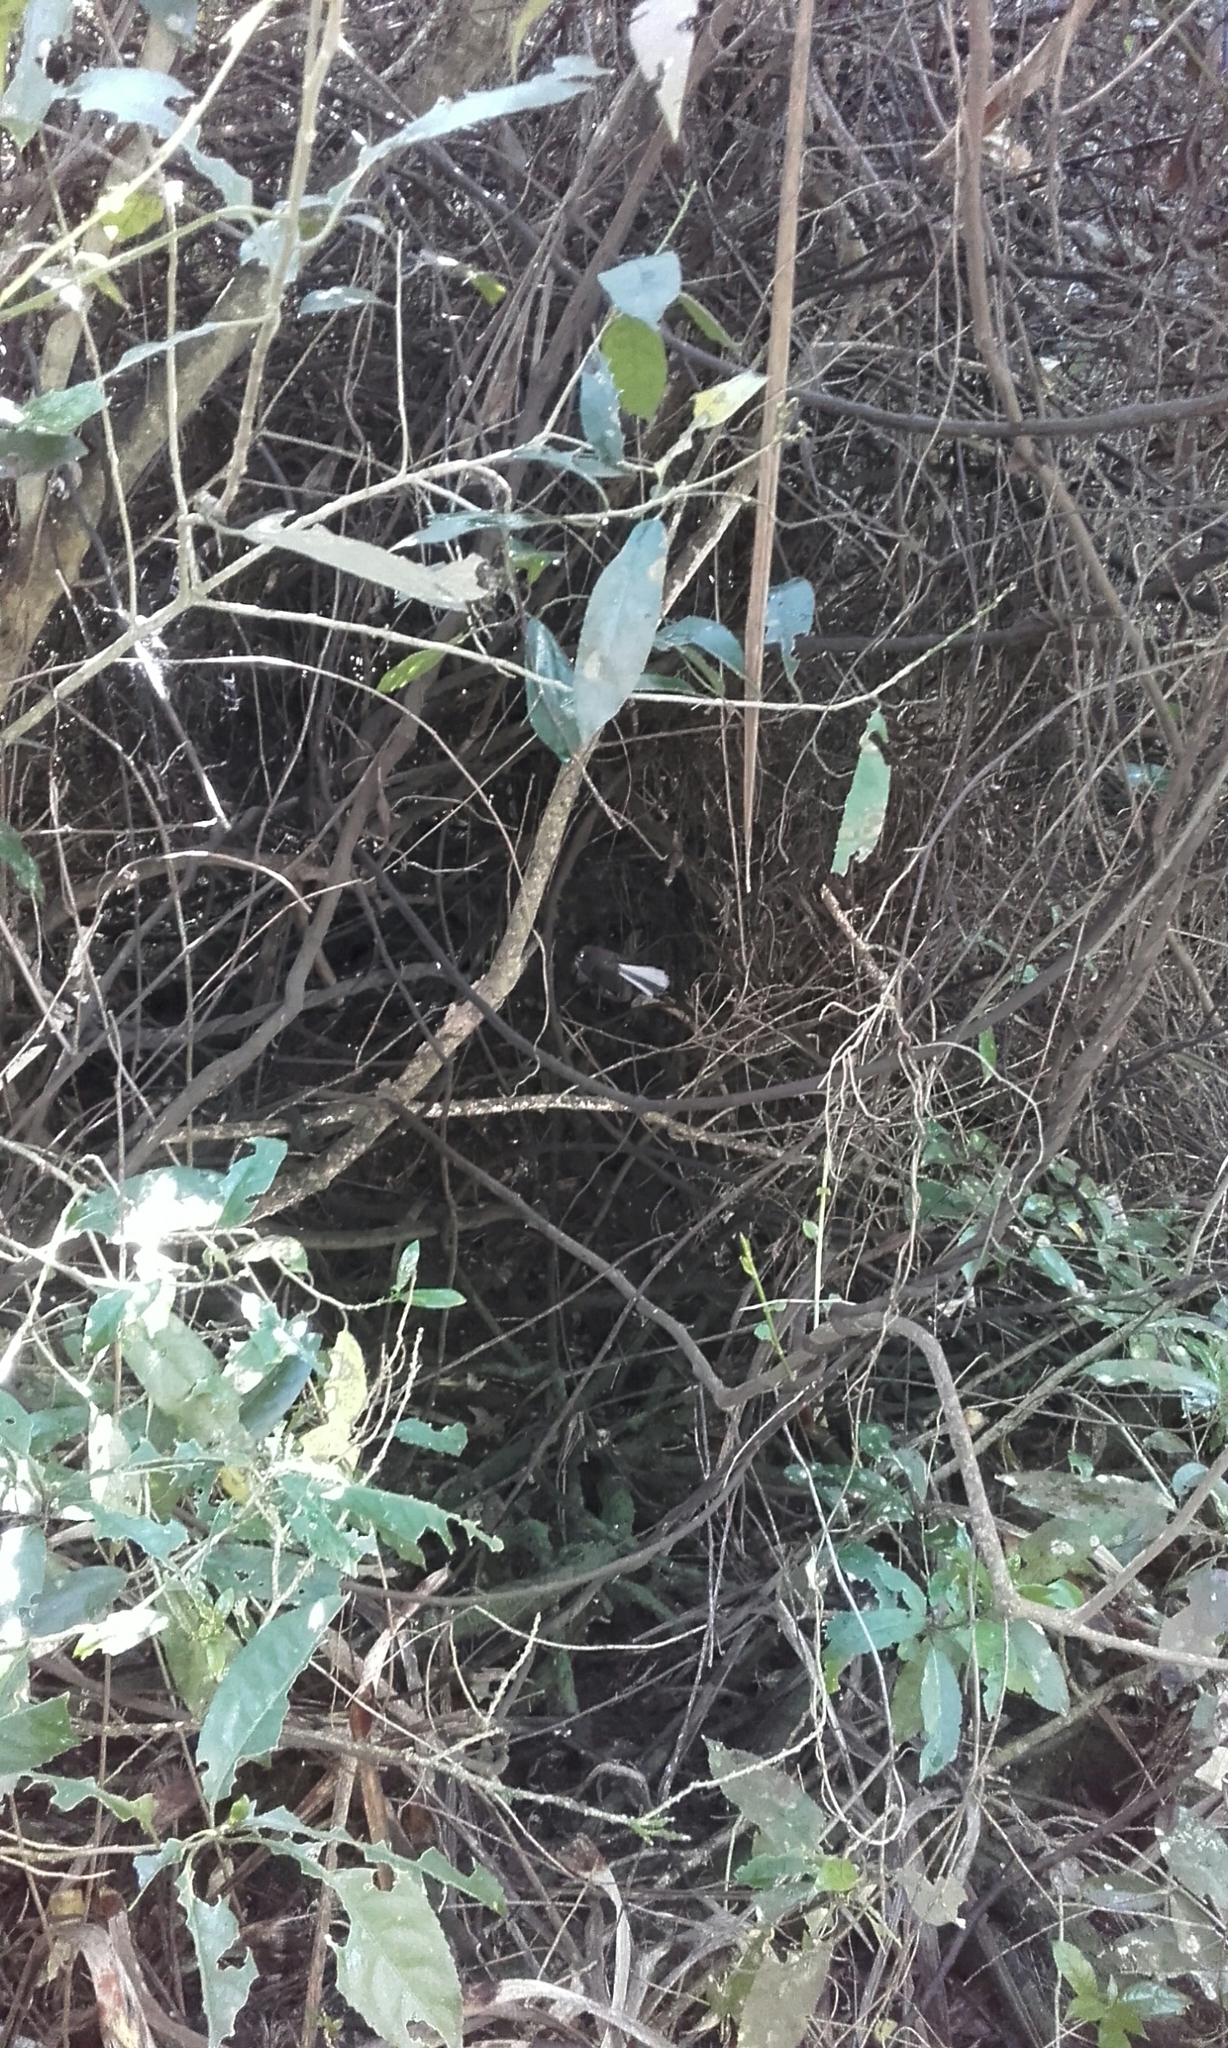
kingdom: Animalia
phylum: Chordata
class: Aves
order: Passeriformes
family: Rhipiduridae
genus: Rhipidura
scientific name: Rhipidura fuliginosa
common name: New zealand fantail
